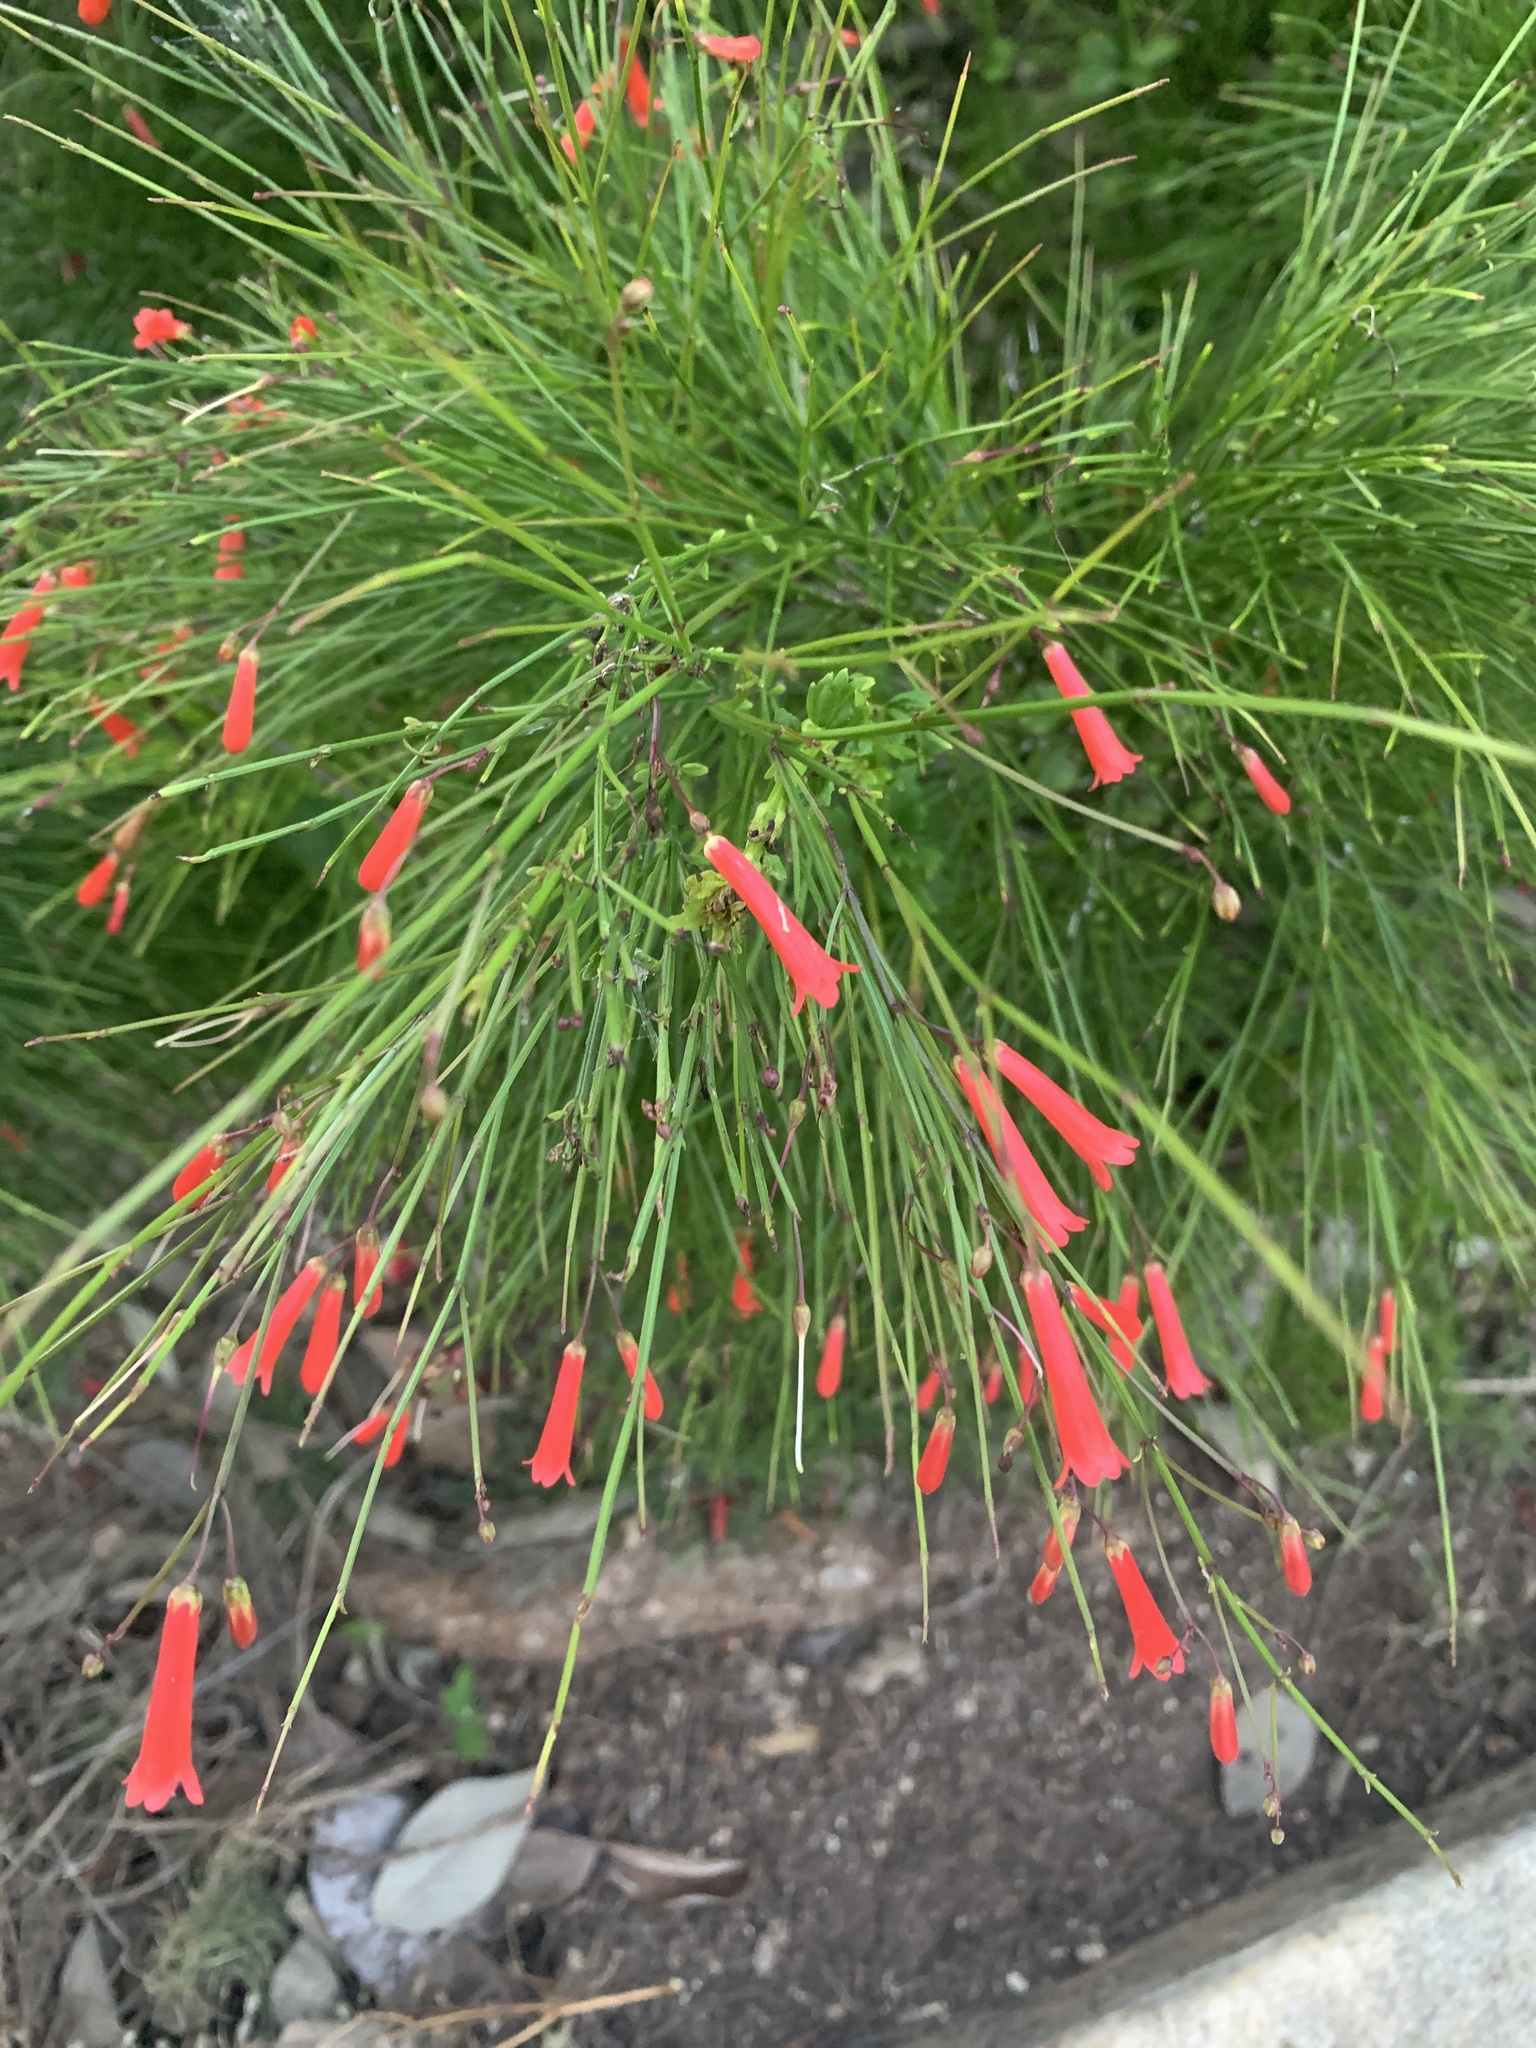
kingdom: Plantae
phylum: Tracheophyta
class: Magnoliopsida
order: Lamiales
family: Plantaginaceae
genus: Russelia
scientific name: Russelia equisetiformis
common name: Fountainbush
